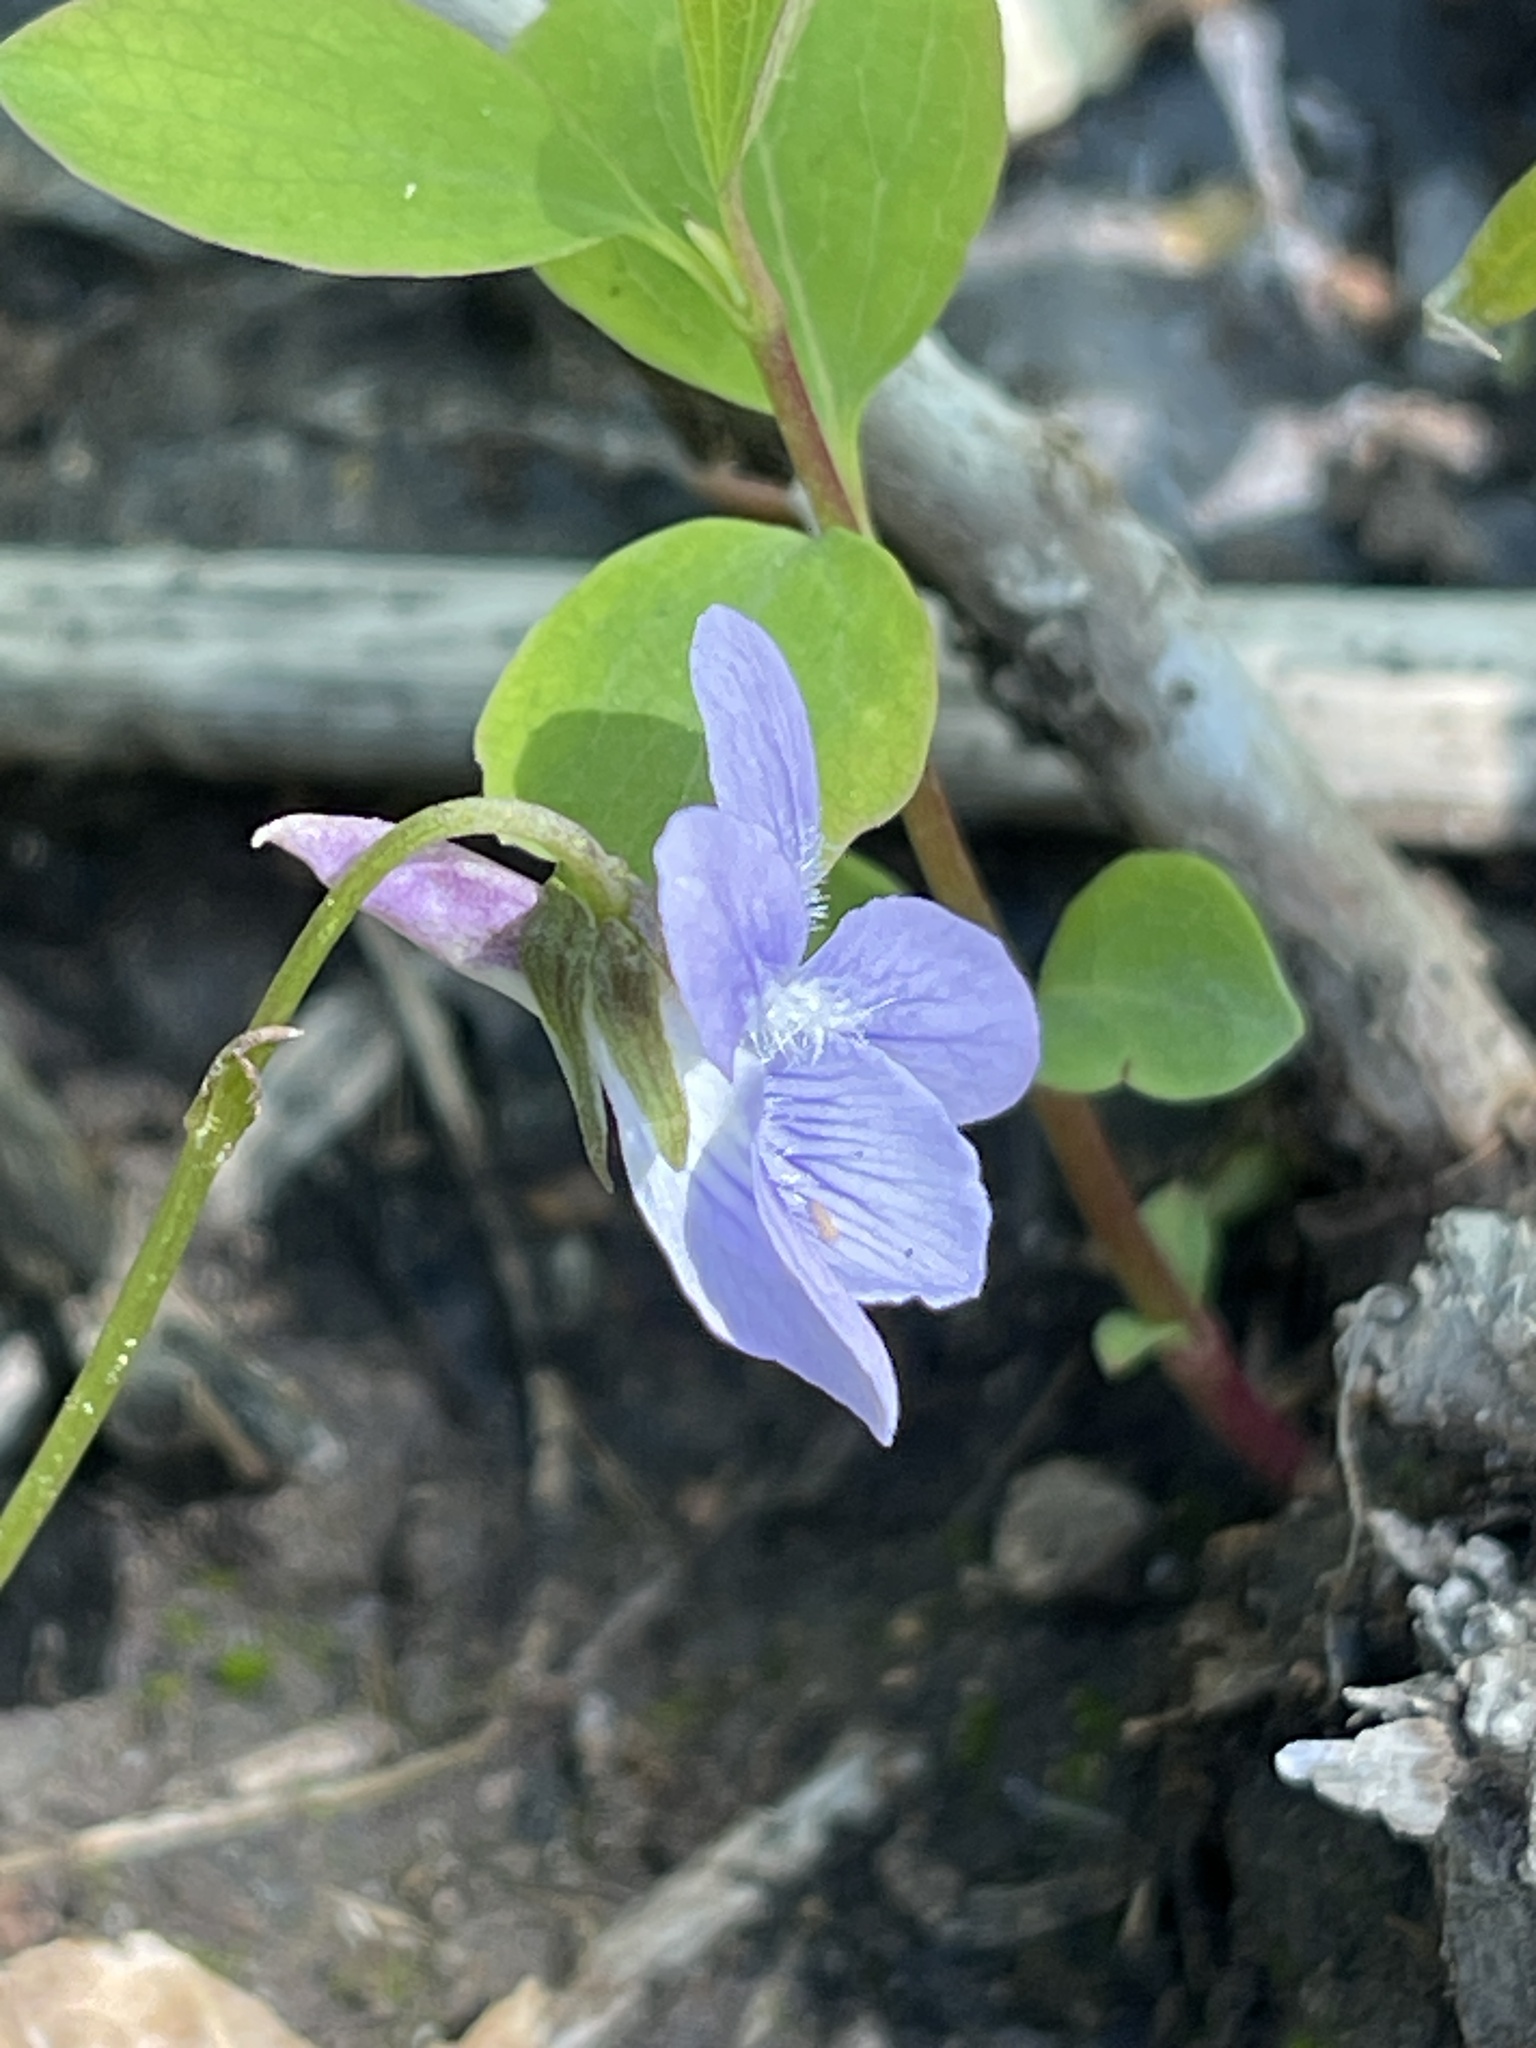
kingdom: Plantae
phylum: Tracheophyta
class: Magnoliopsida
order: Malpighiales
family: Violaceae
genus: Viola
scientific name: Viola adunca
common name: Sand violet
